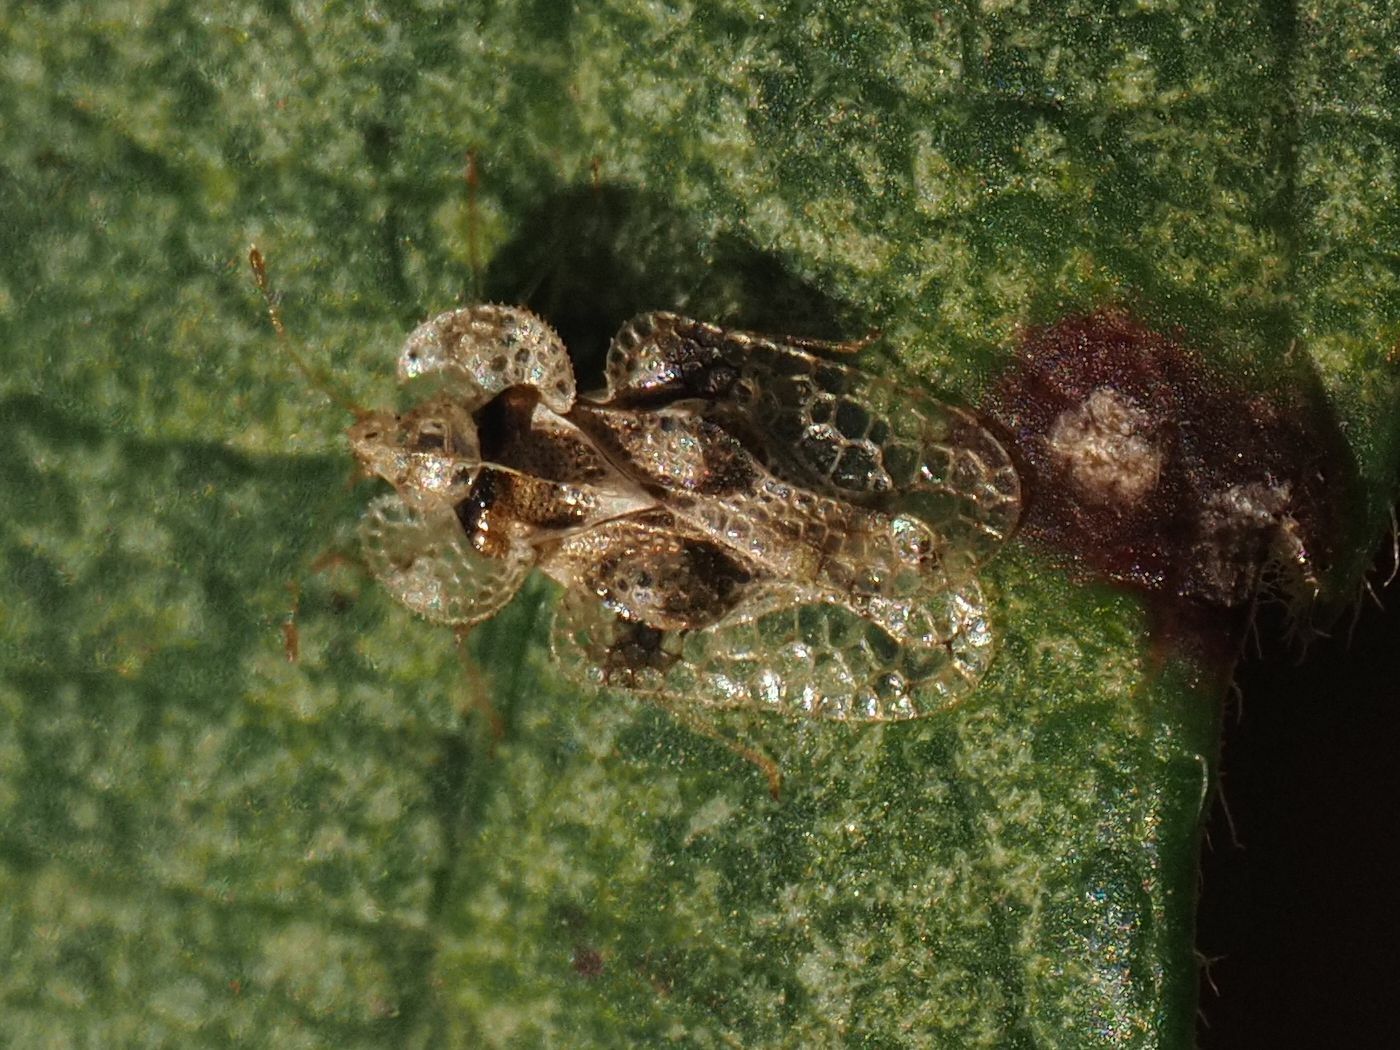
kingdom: Animalia
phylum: Arthropoda
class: Insecta
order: Hemiptera
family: Tingidae
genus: Corythucha
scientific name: Corythucha arcuata
